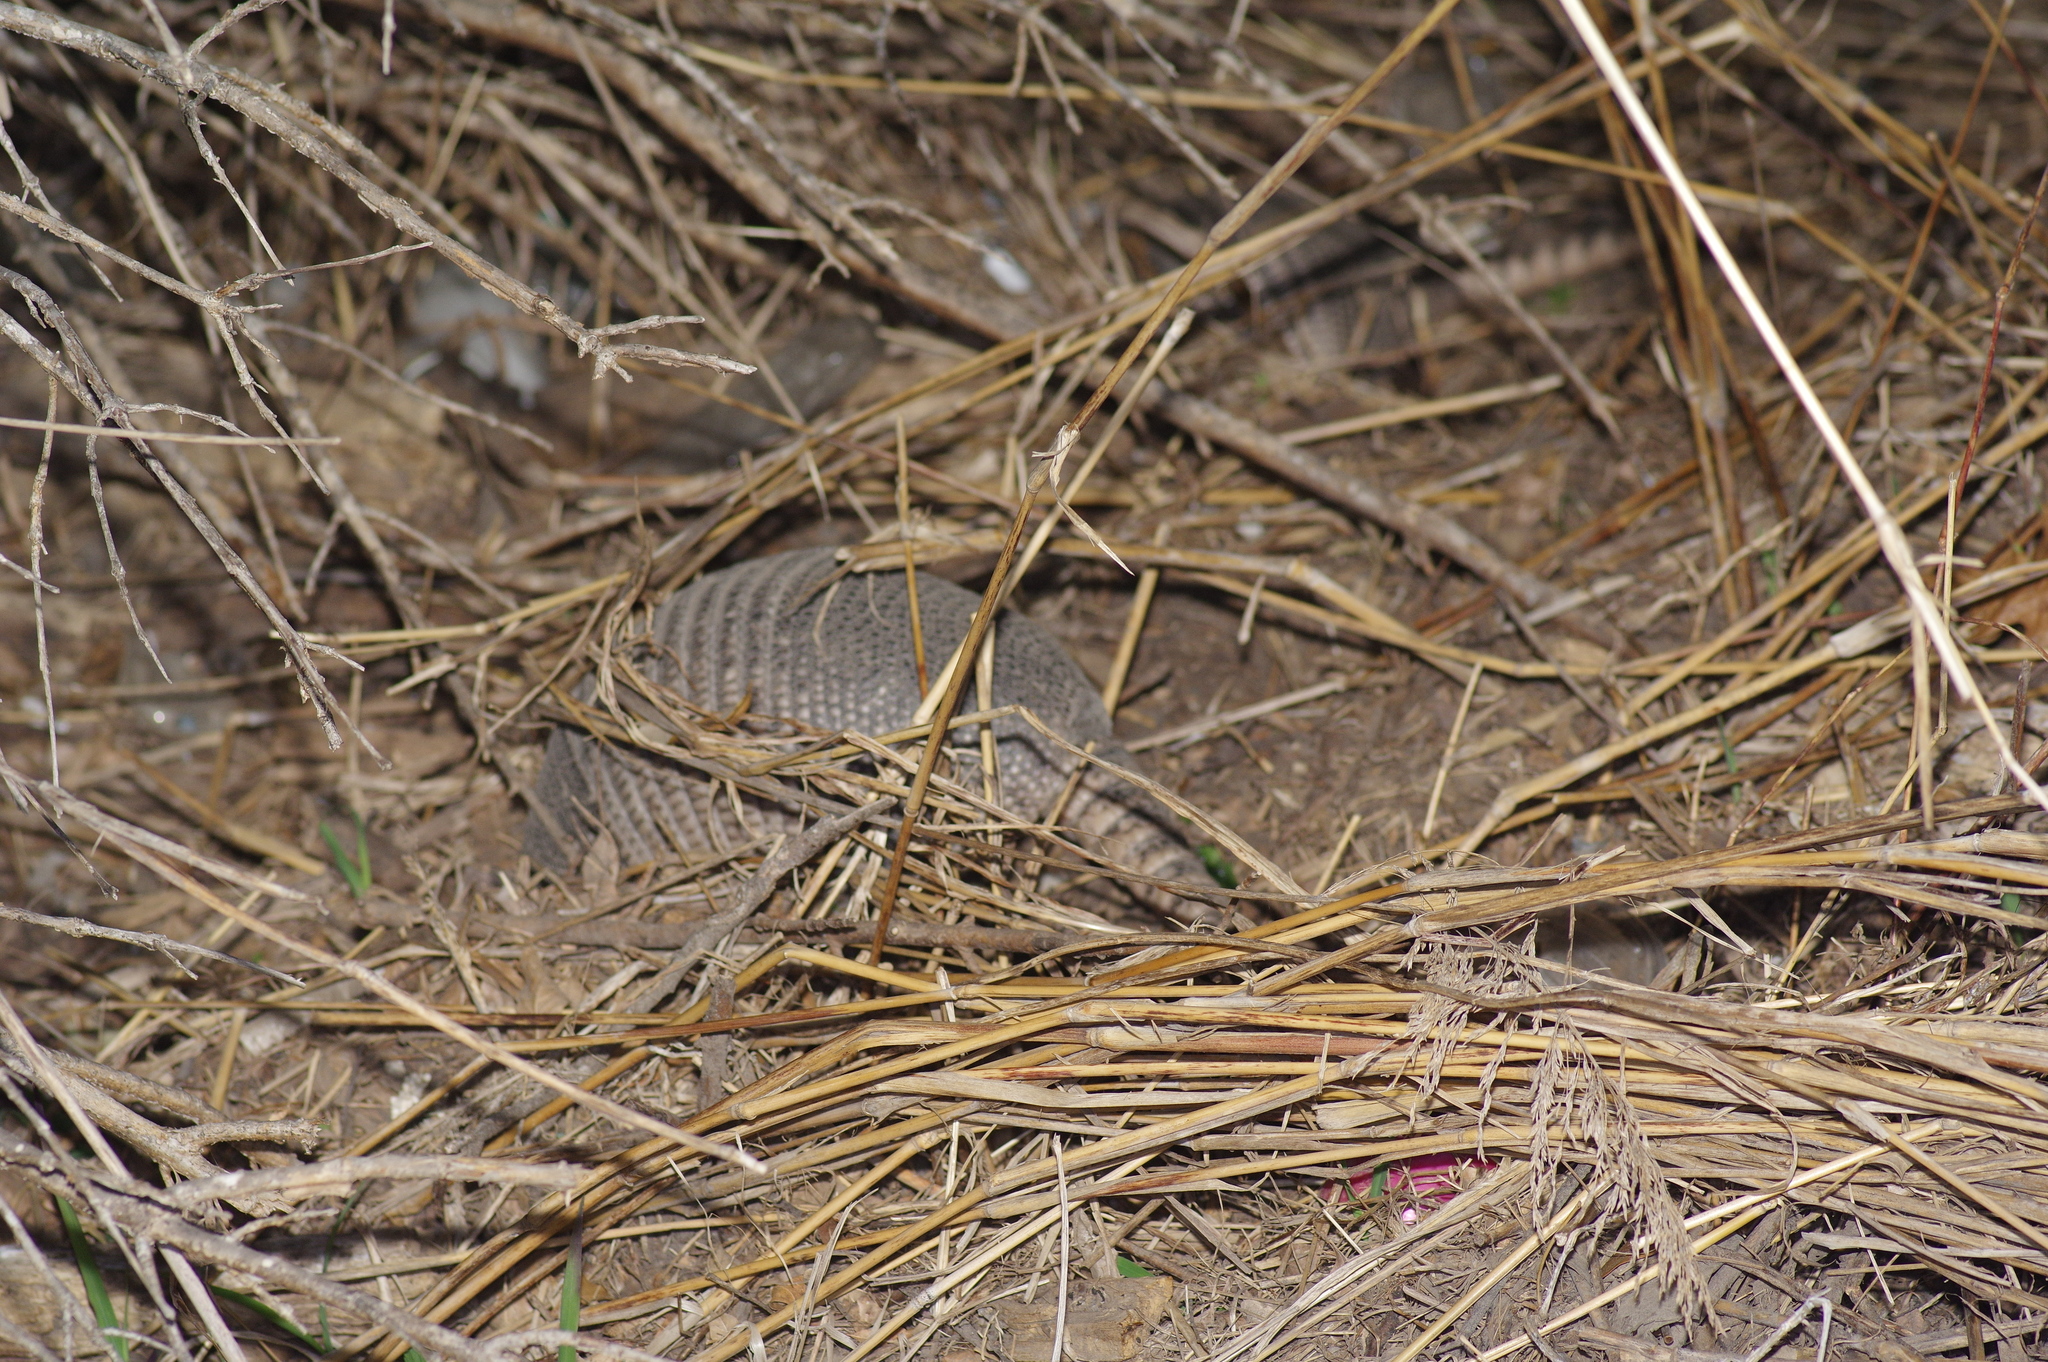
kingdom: Animalia
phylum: Chordata
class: Mammalia
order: Cingulata
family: Dasypodidae
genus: Dasypus
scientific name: Dasypus novemcinctus
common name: Nine-banded armadillo
